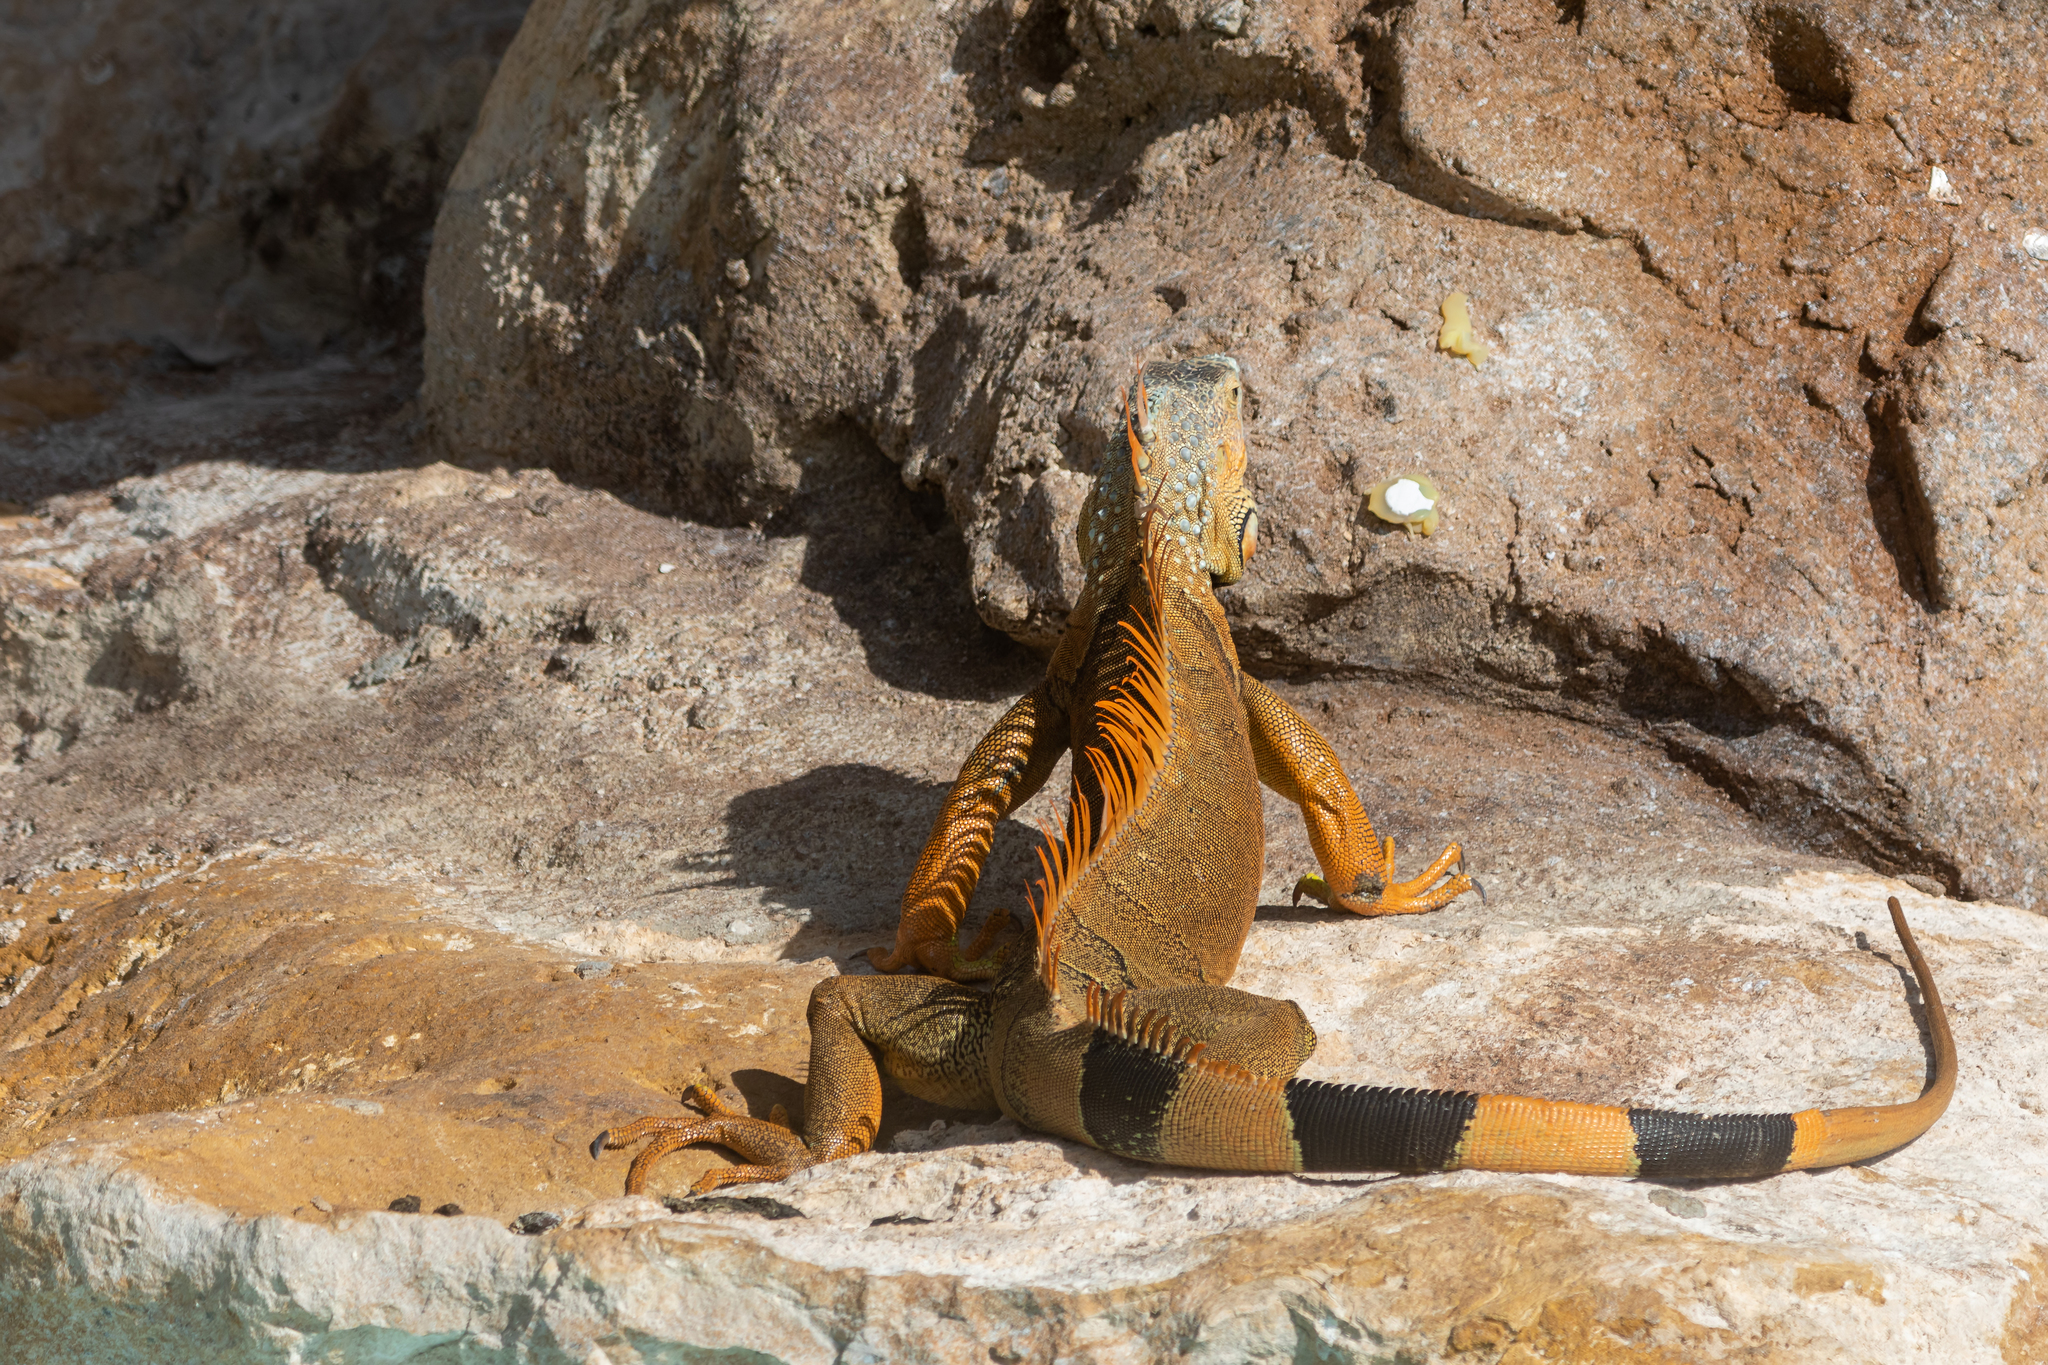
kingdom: Animalia
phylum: Chordata
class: Squamata
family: Iguanidae
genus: Iguana
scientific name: Iguana iguana
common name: Green iguana
